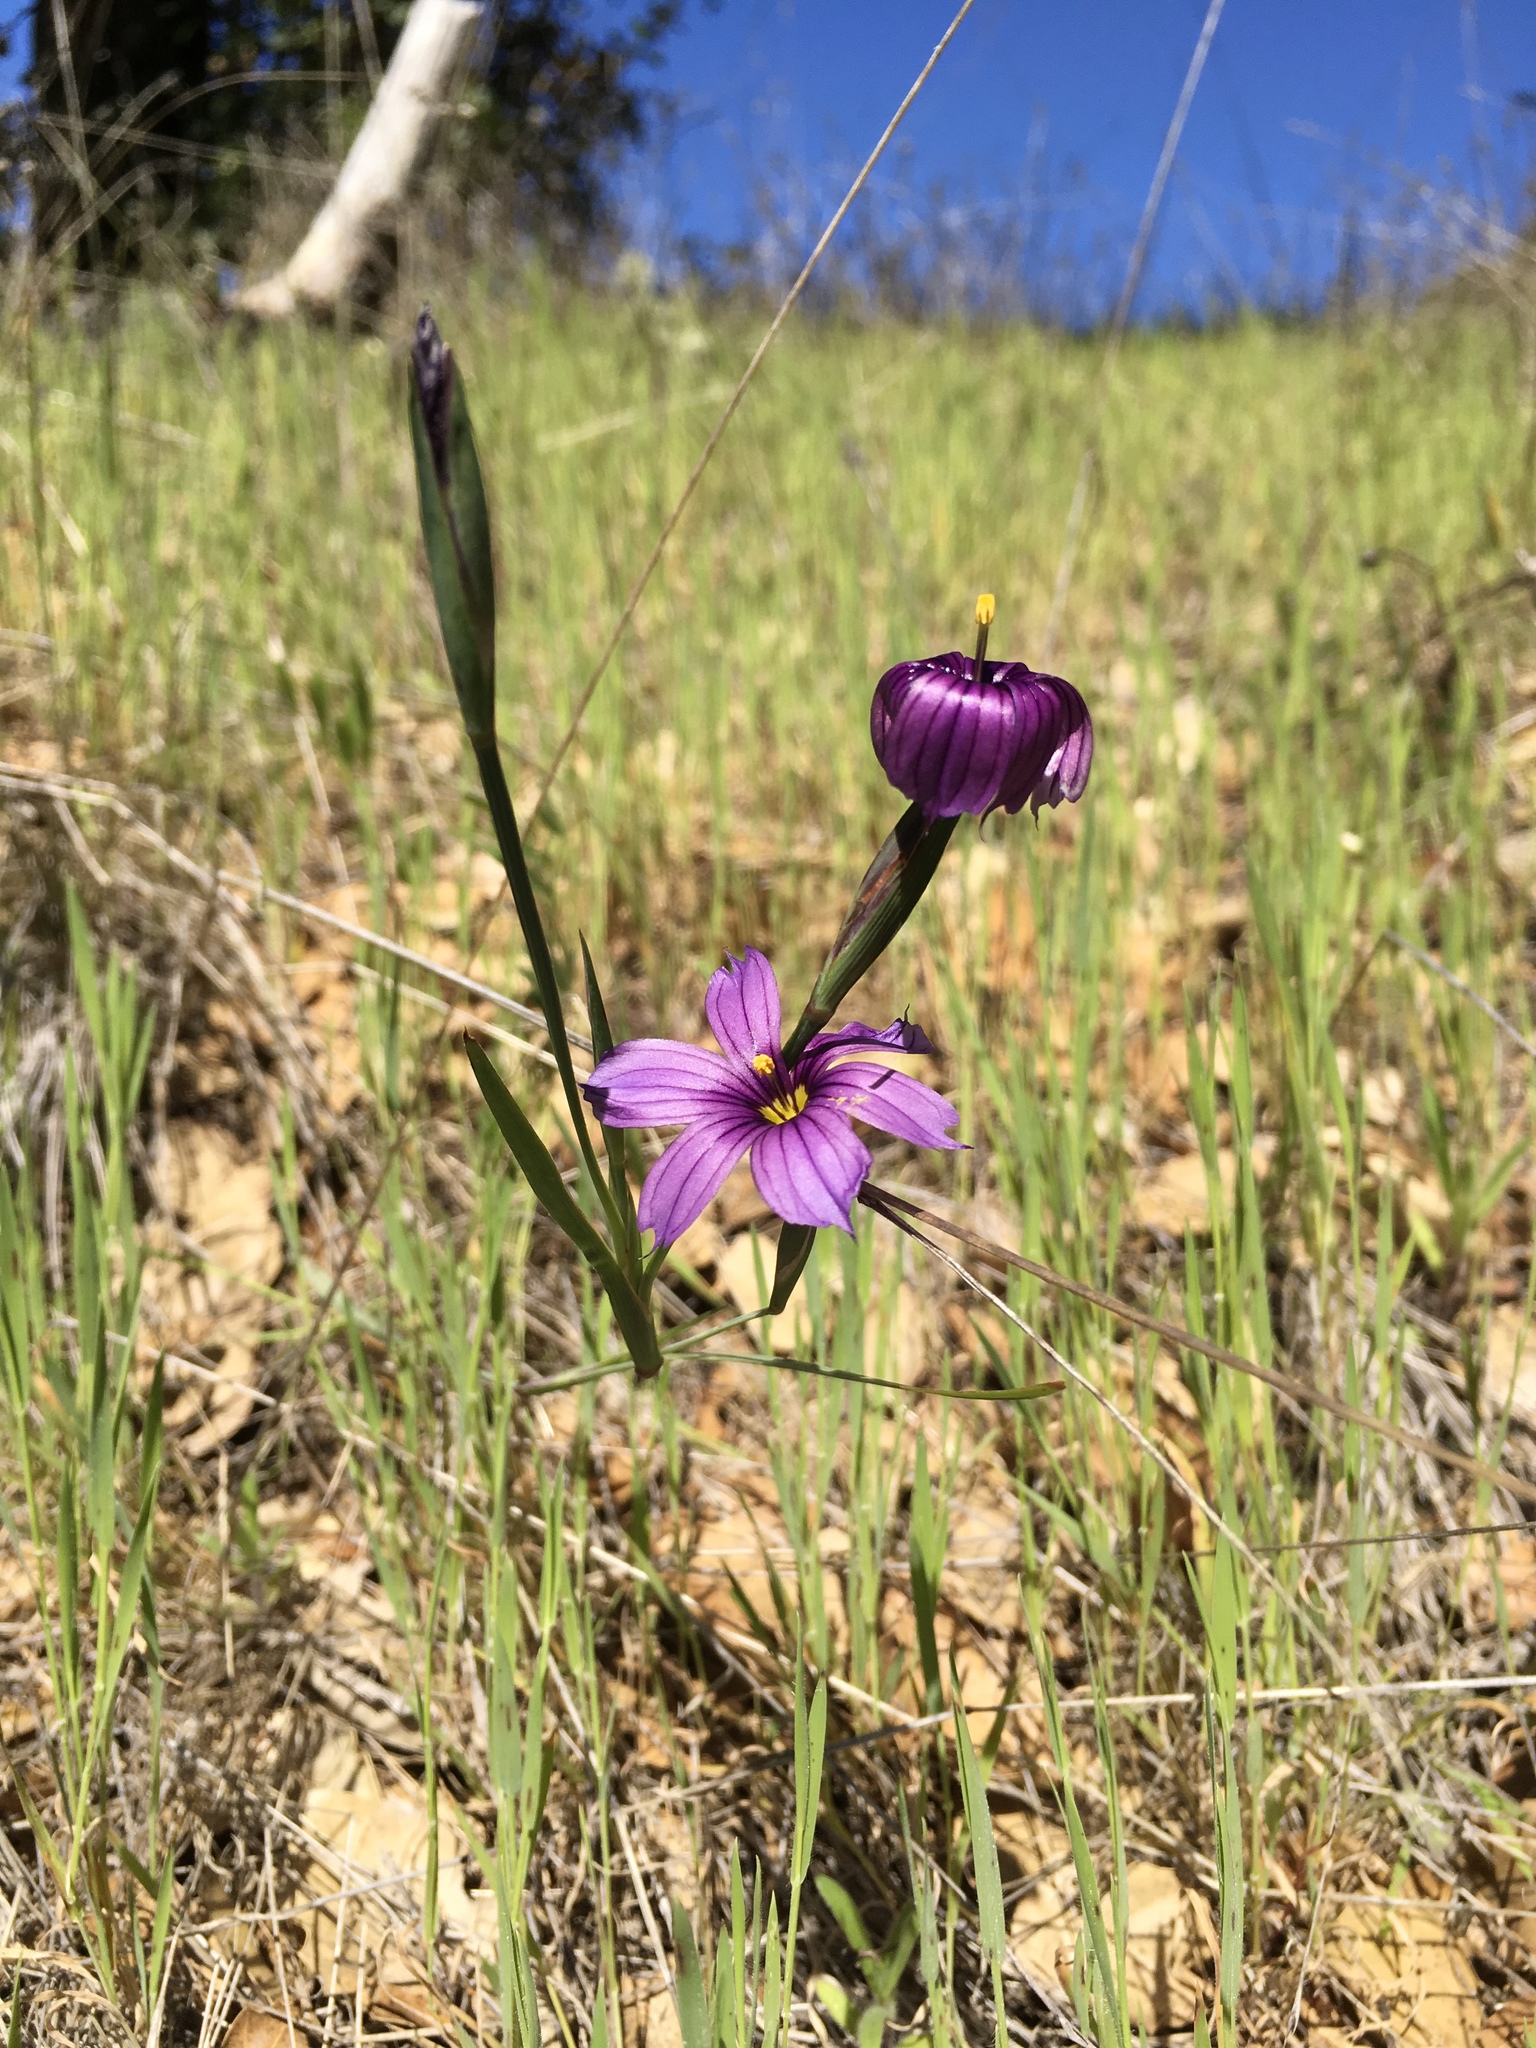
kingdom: Plantae
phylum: Tracheophyta
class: Liliopsida
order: Asparagales
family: Iridaceae
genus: Sisyrinchium
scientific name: Sisyrinchium bellum
